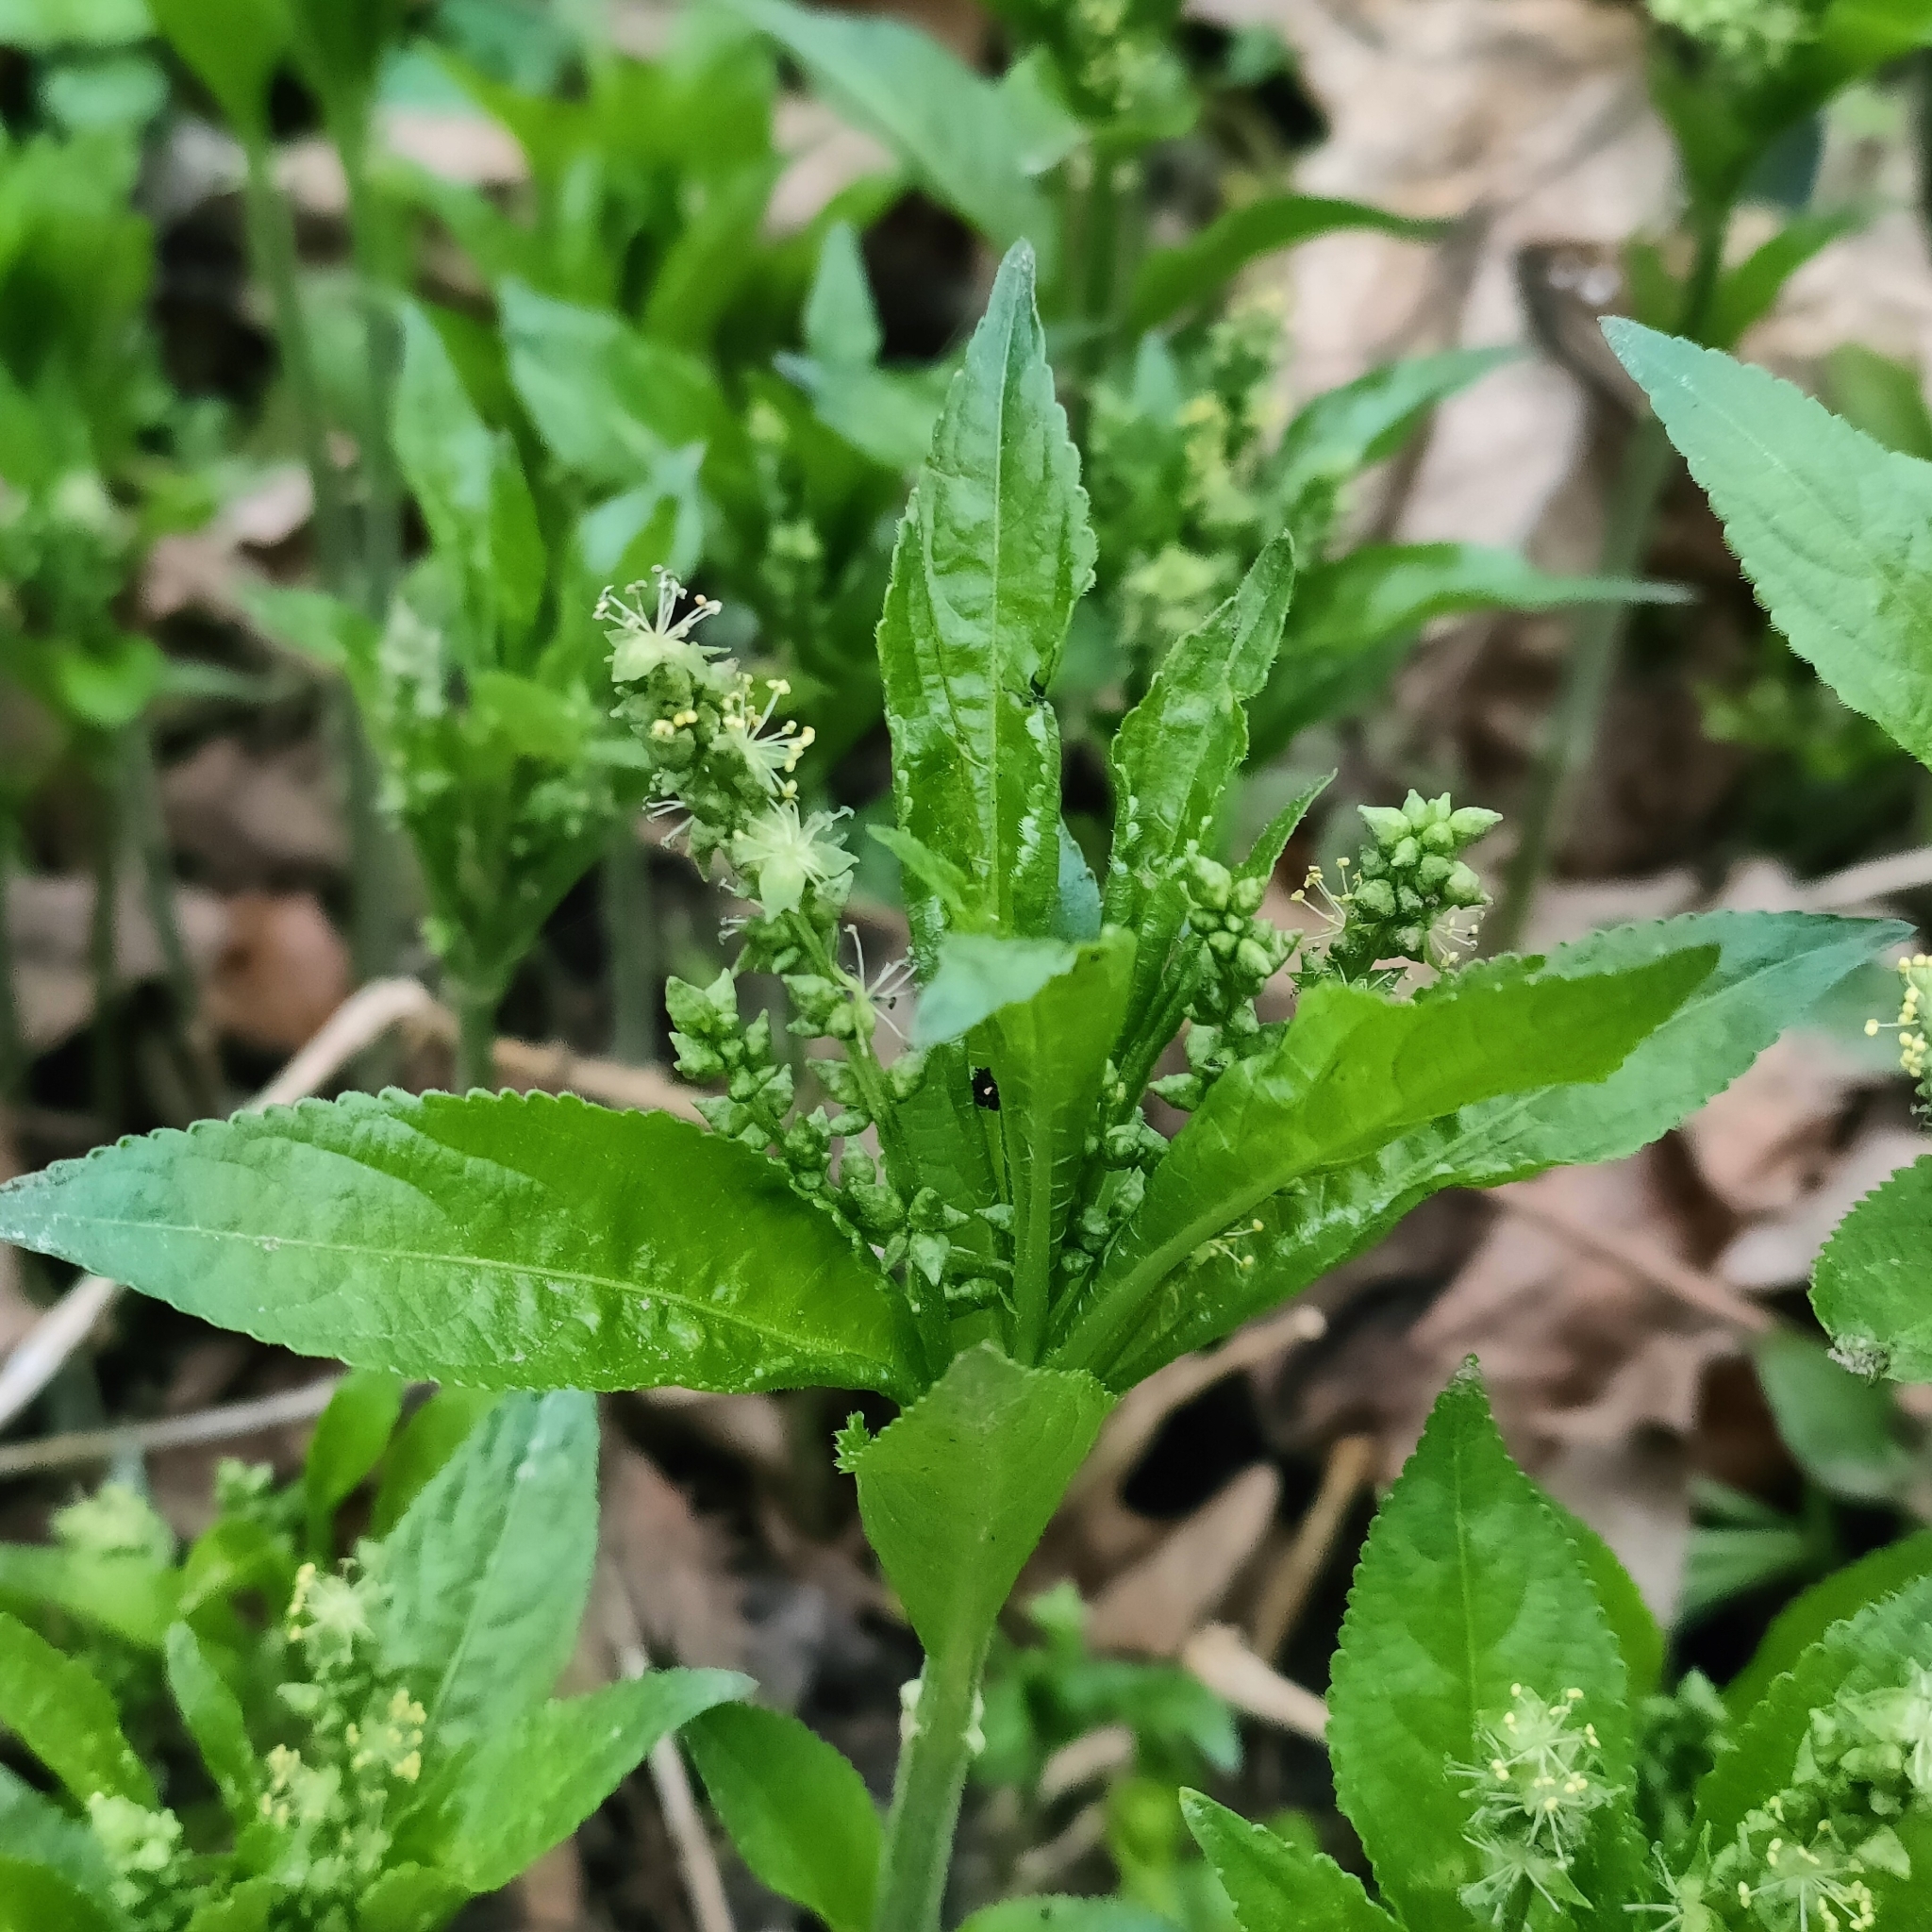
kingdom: Plantae
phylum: Tracheophyta
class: Magnoliopsida
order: Malpighiales
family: Euphorbiaceae
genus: Mercurialis
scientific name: Mercurialis perennis
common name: Dog mercury
